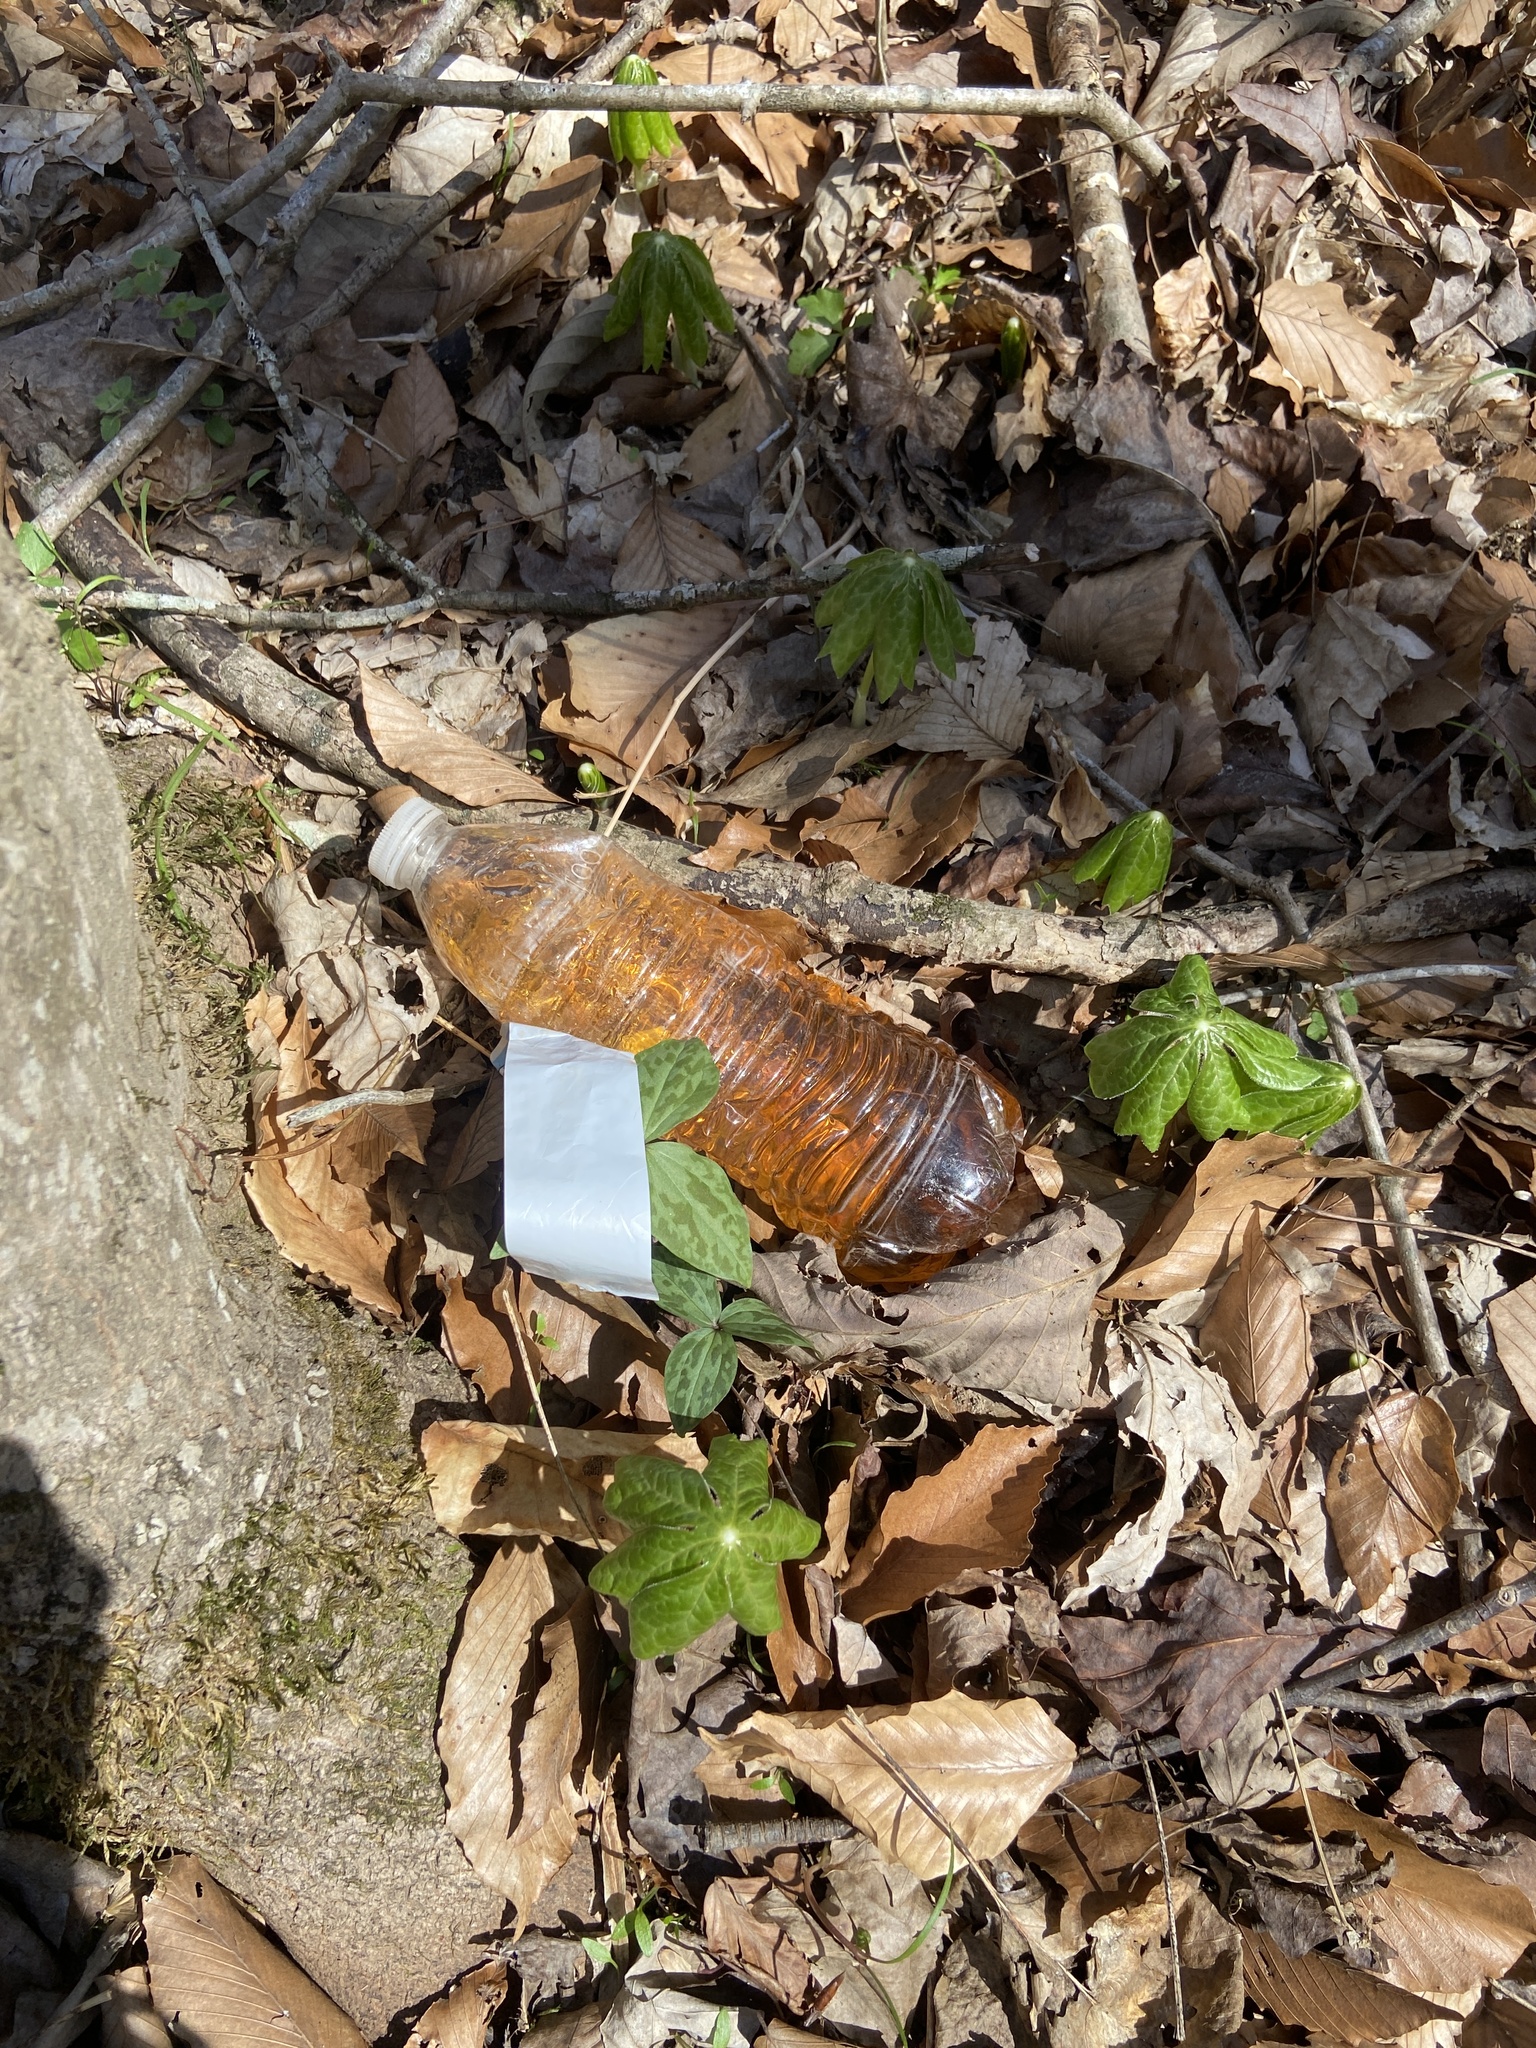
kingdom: Plantae
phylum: Tracheophyta
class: Liliopsida
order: Liliales
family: Melanthiaceae
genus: Trillium
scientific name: Trillium cuneatum
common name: Cuneate trillium
